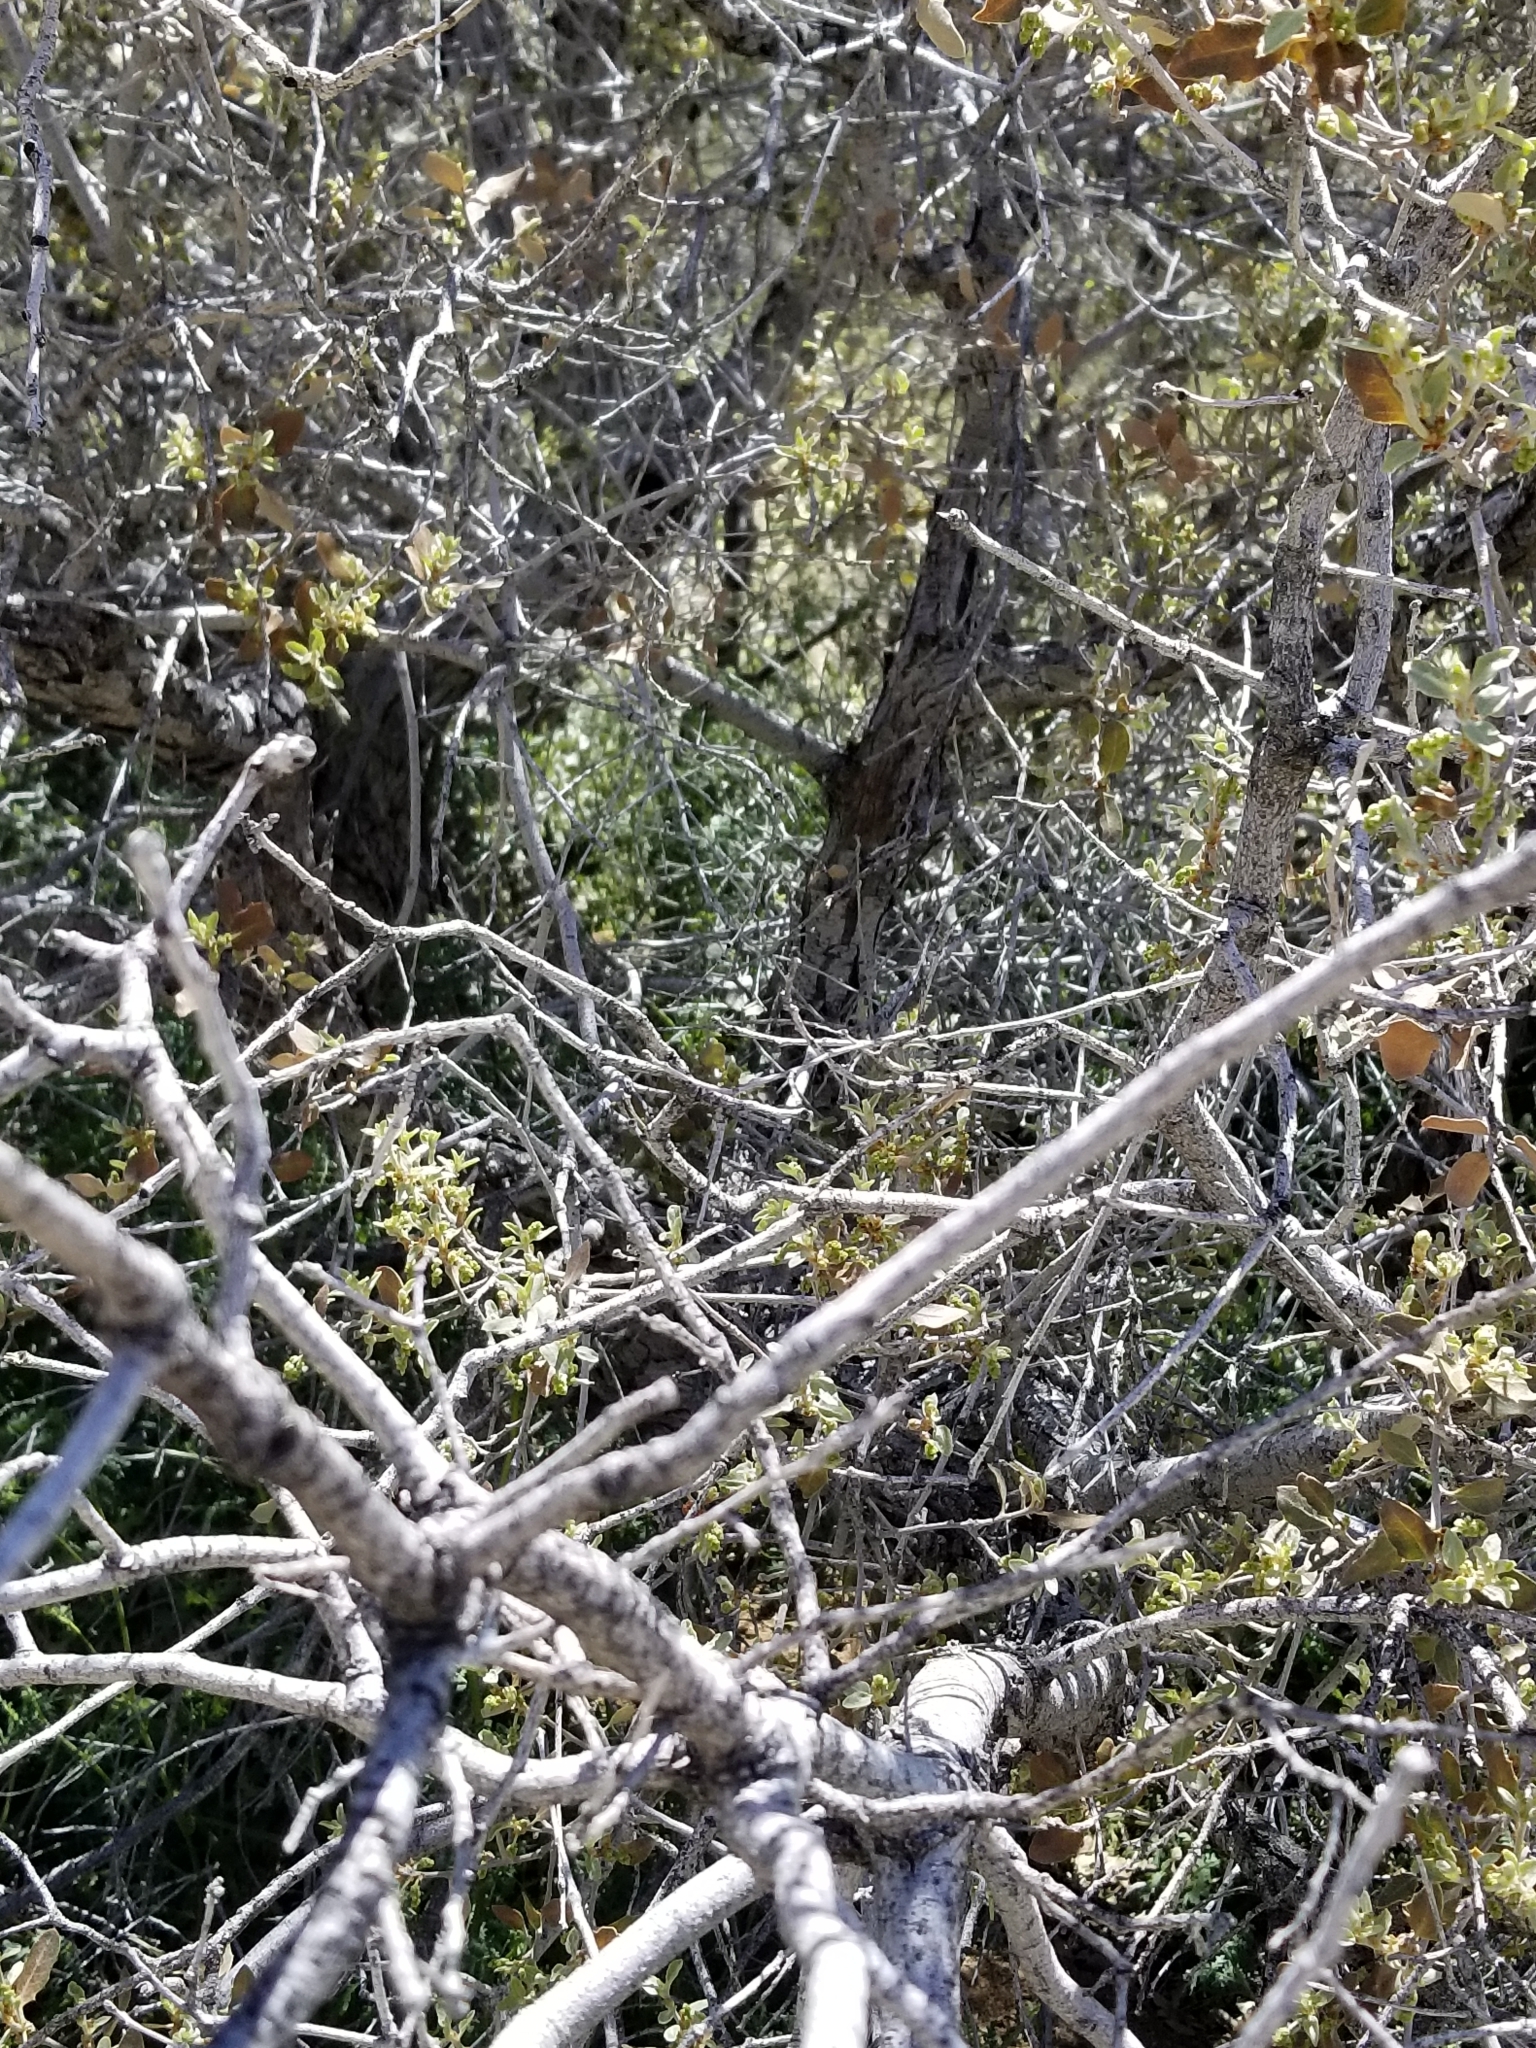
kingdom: Plantae
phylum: Tracheophyta
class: Magnoliopsida
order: Fagales
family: Fagaceae
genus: Quercus
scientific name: Quercus cornelius-mulleri
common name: Muller oak
